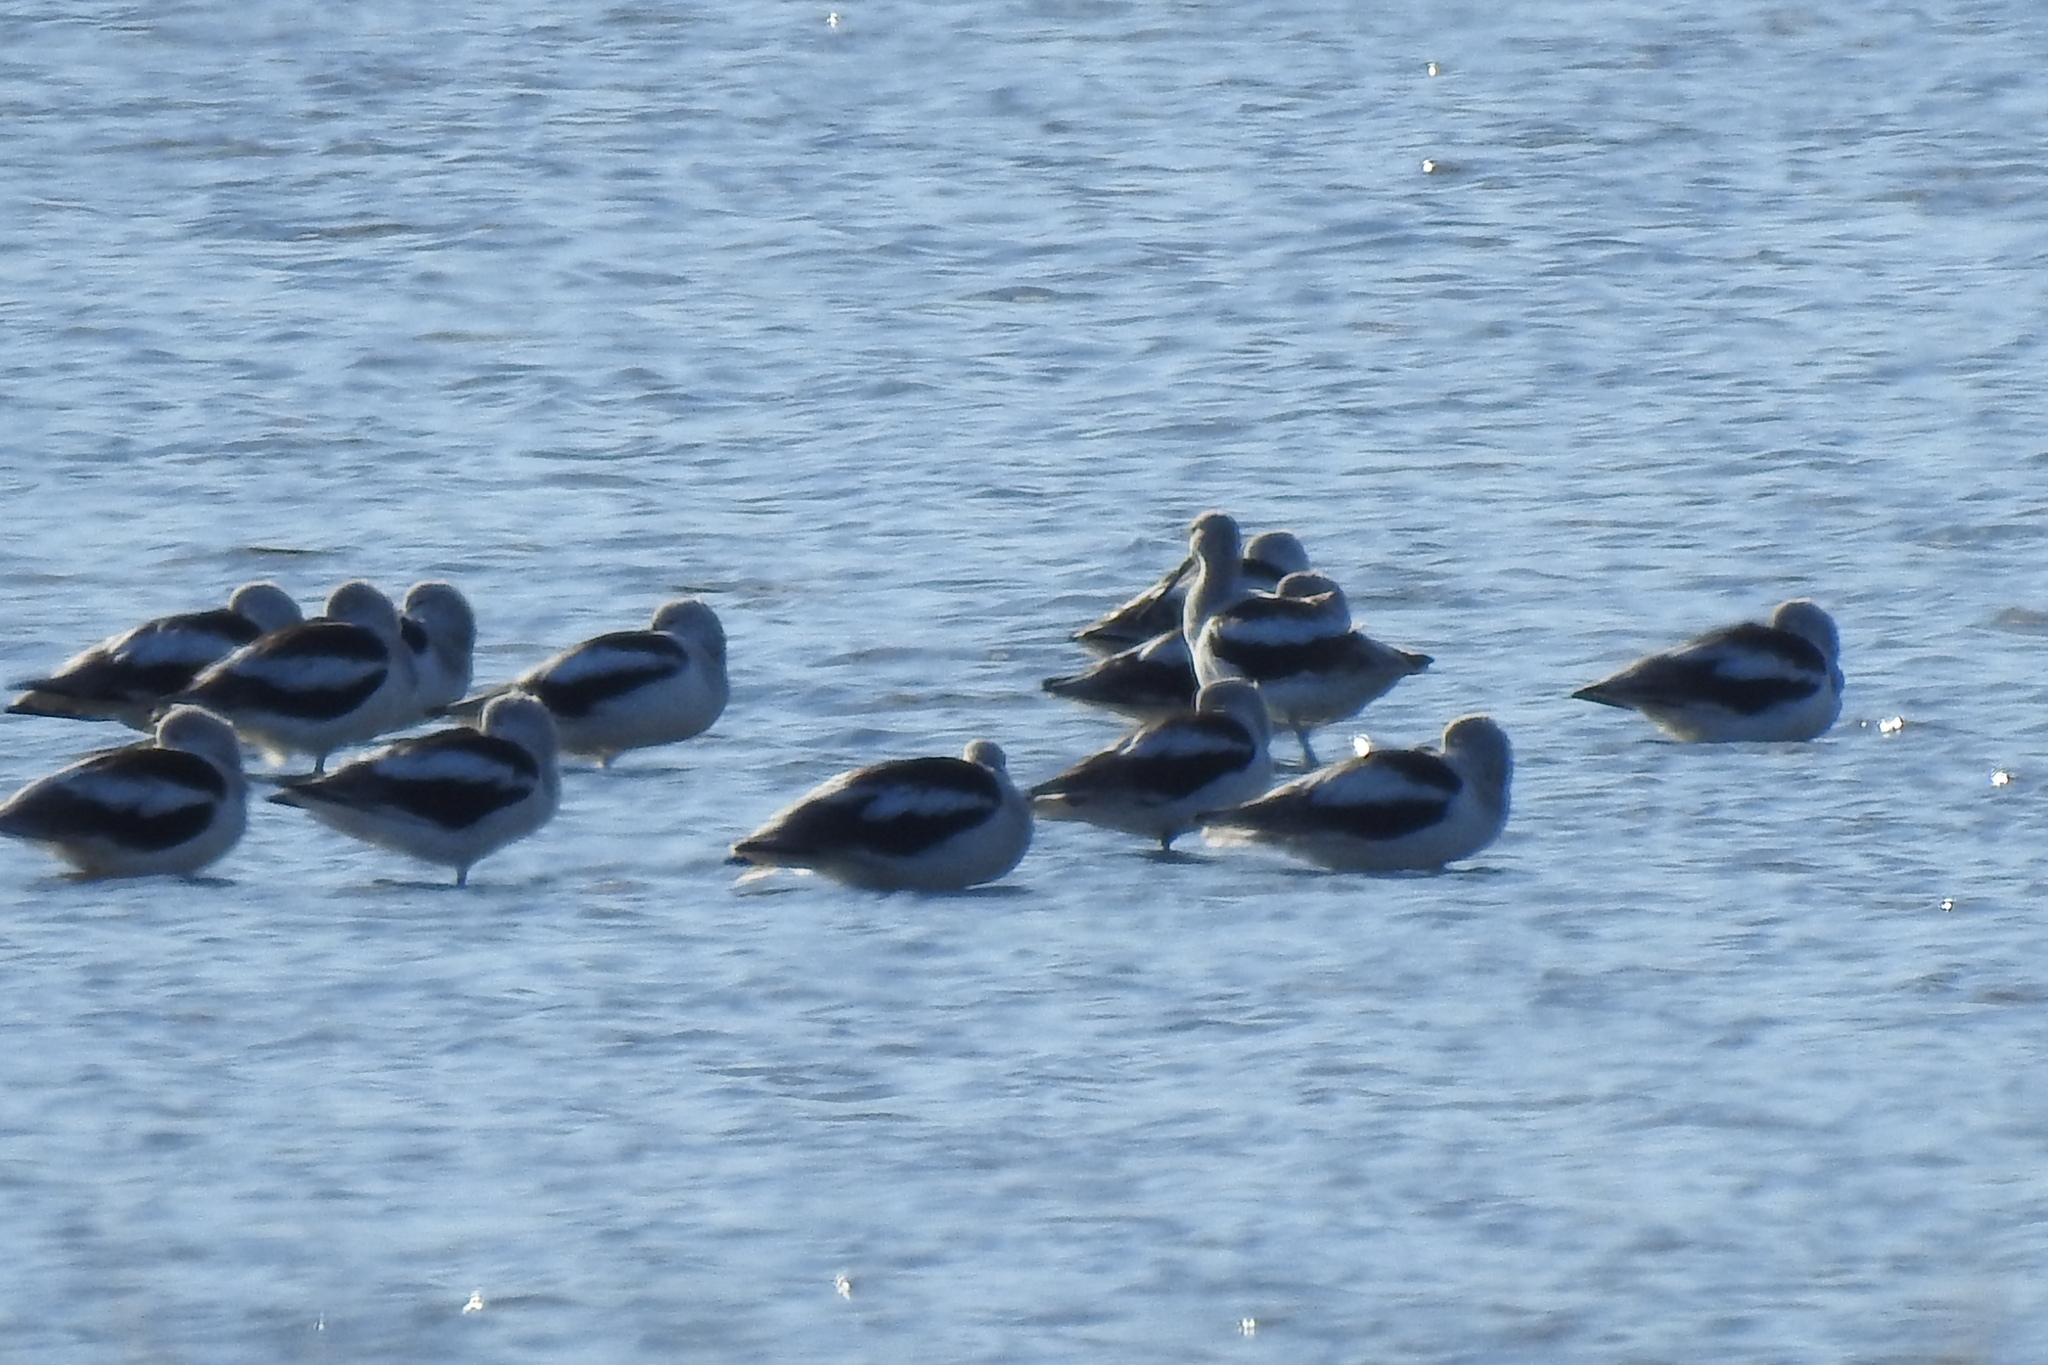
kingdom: Animalia
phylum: Chordata
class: Aves
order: Charadriiformes
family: Recurvirostridae
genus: Recurvirostra
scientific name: Recurvirostra americana
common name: American avocet
